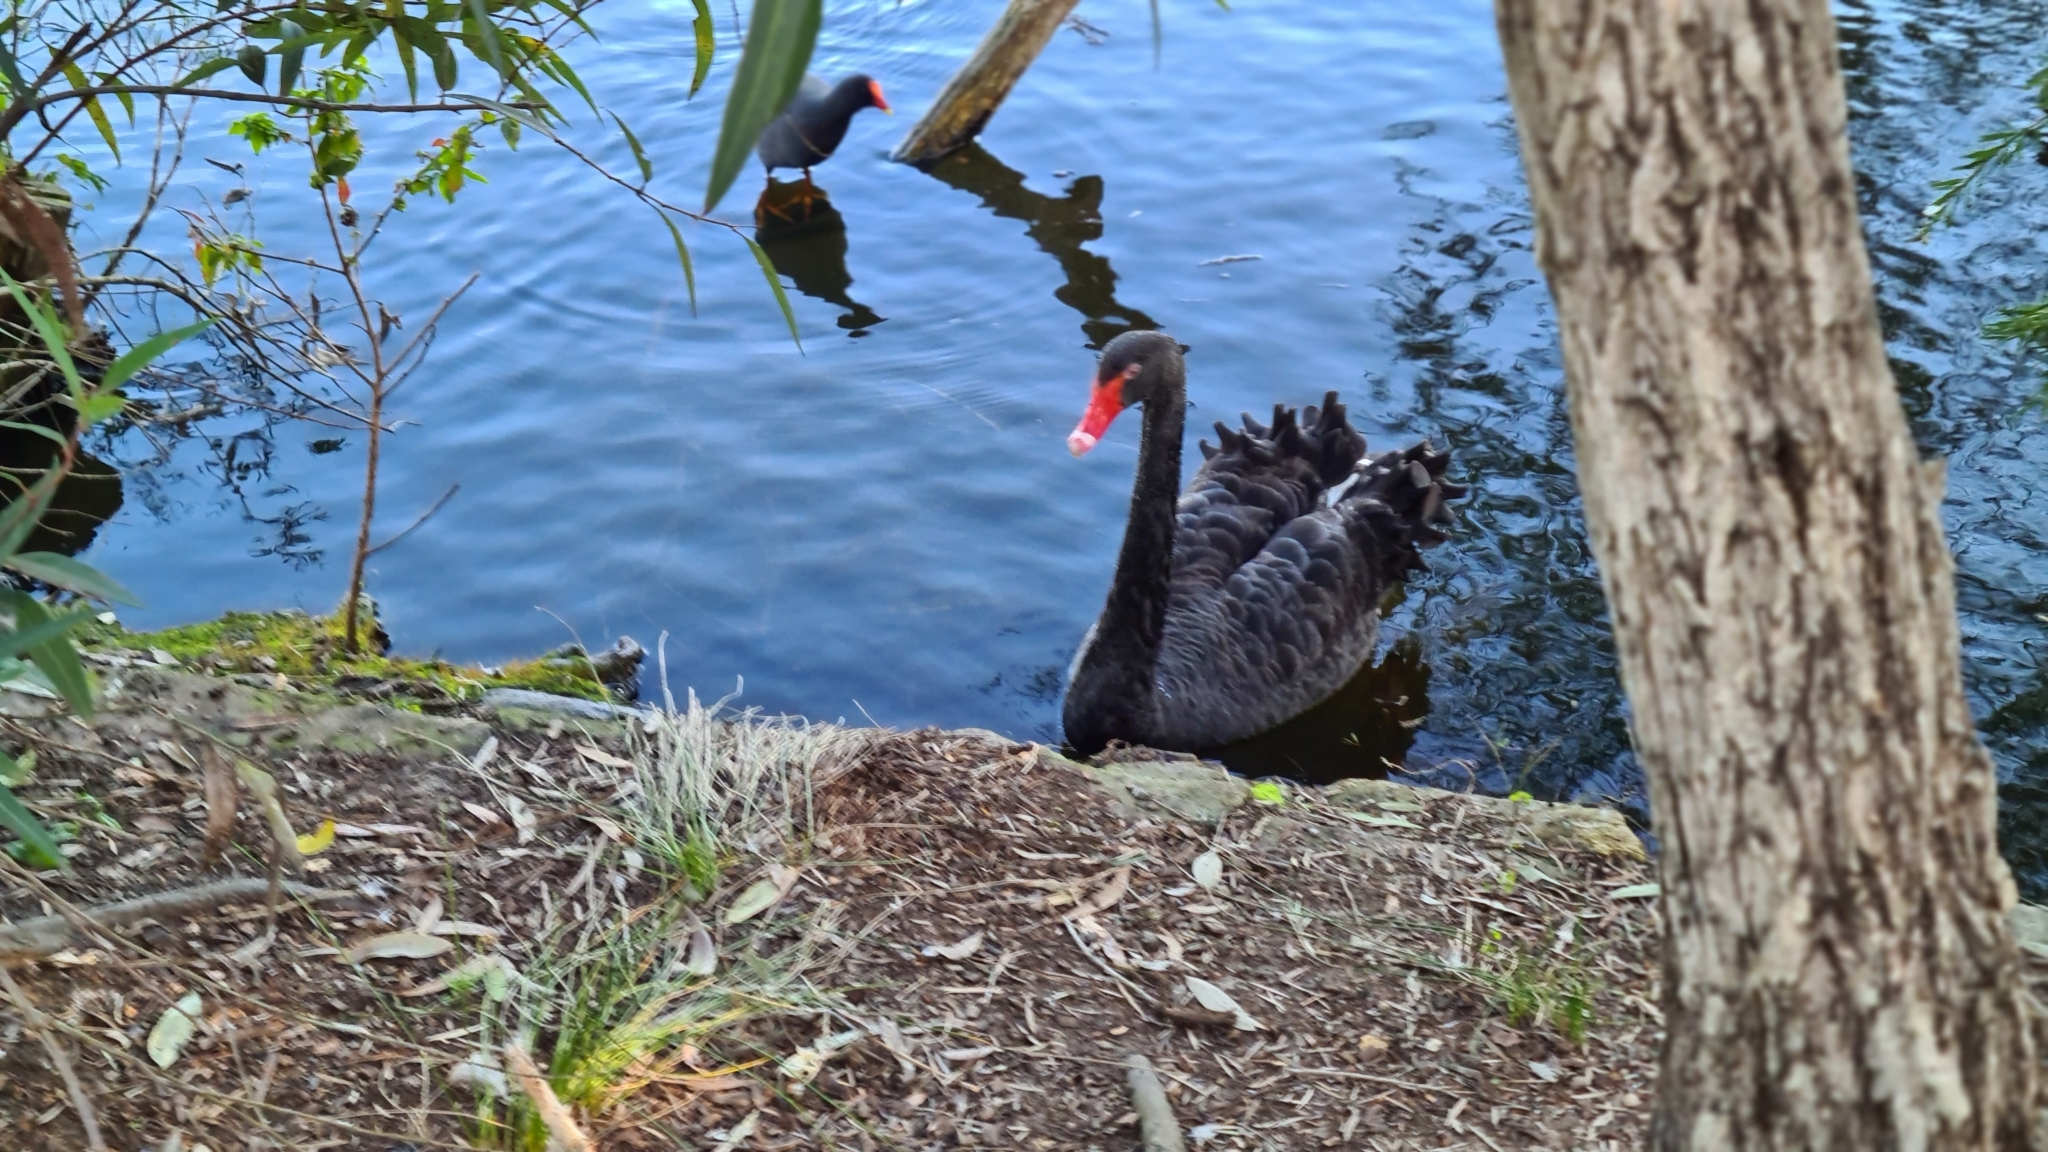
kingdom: Animalia
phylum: Chordata
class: Aves
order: Anseriformes
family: Anatidae
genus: Cygnus
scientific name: Cygnus atratus
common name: Black swan
